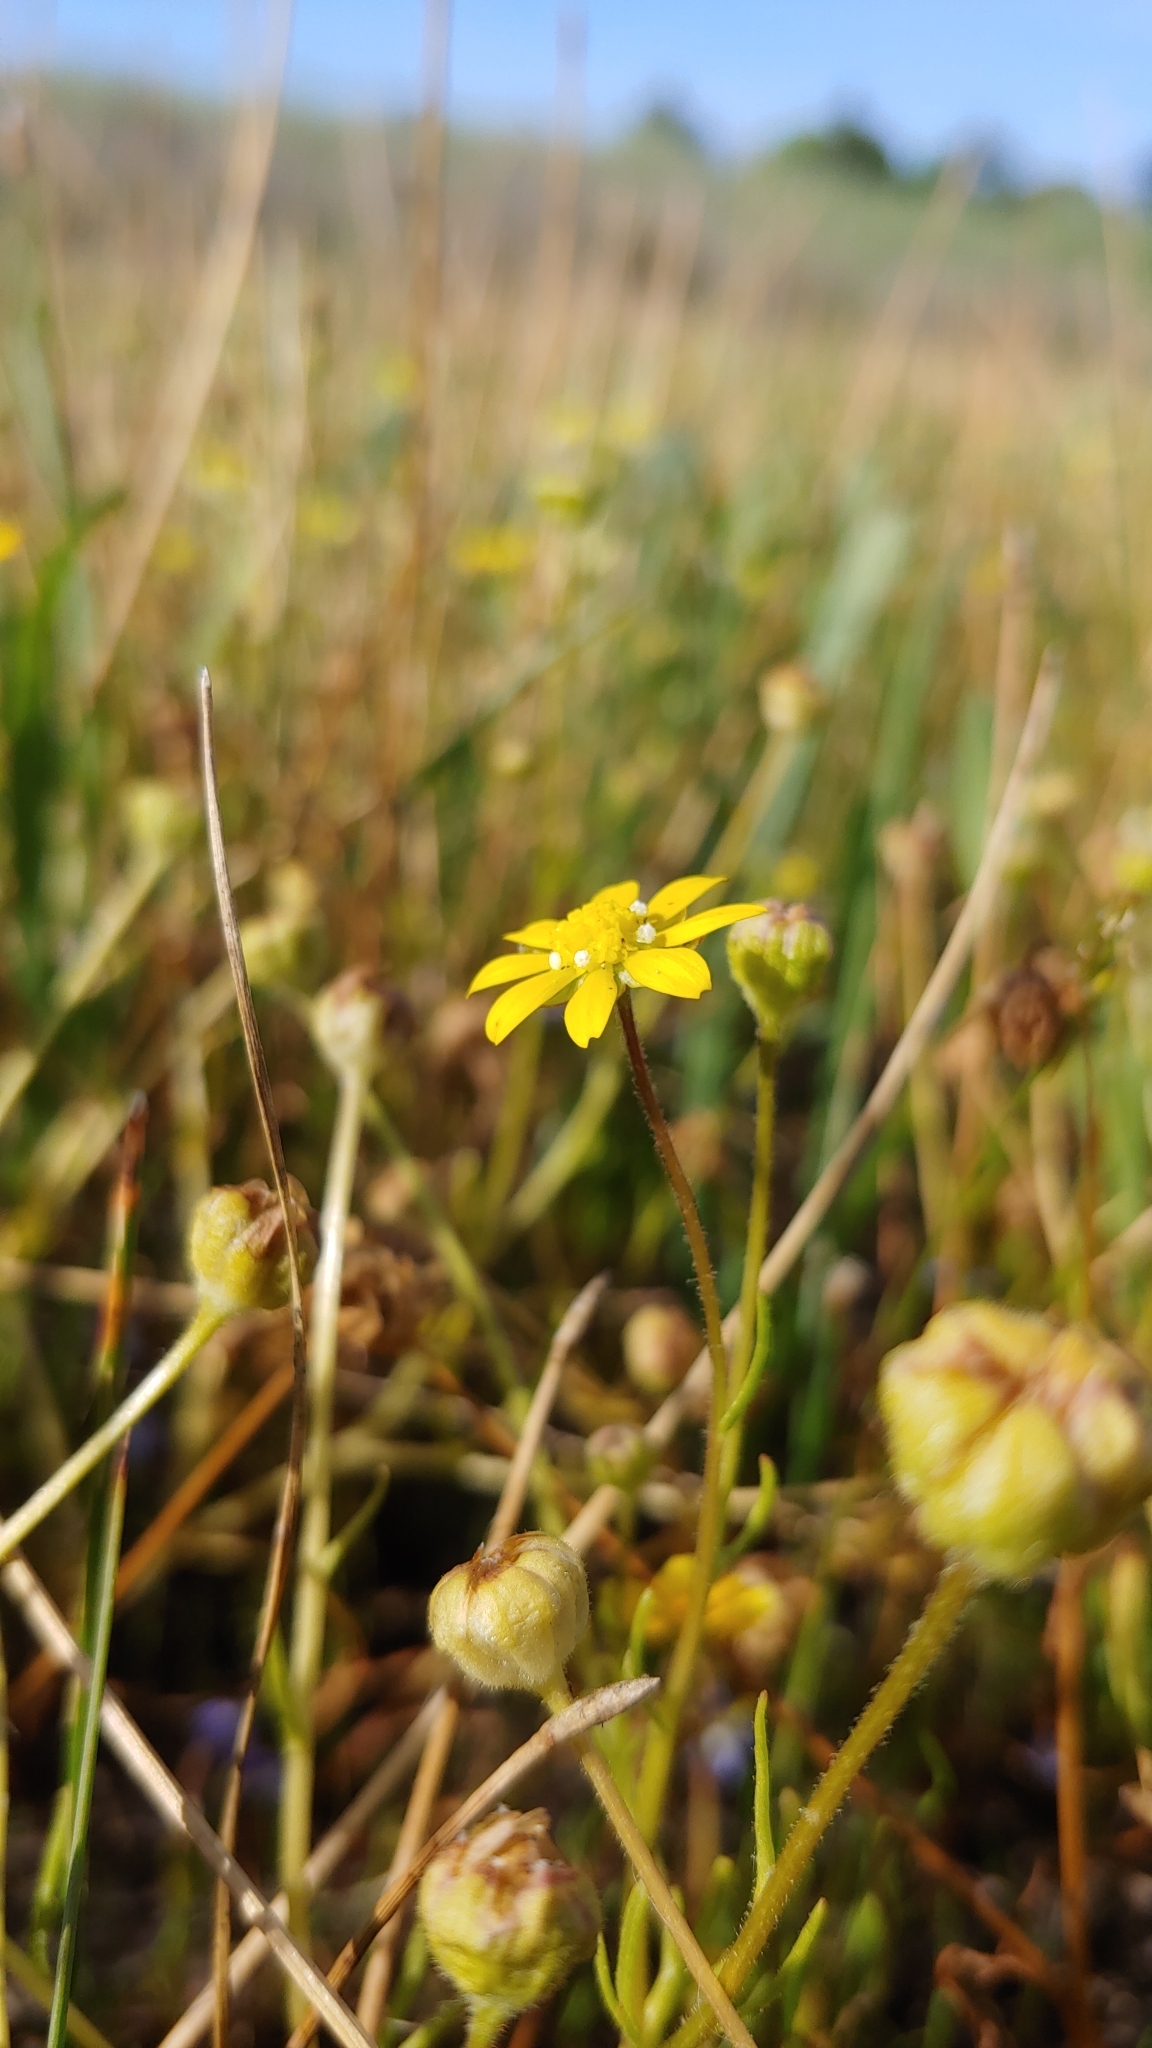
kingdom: Plantae
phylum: Tracheophyta
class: Magnoliopsida
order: Asterales
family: Asteraceae
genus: Blennosperma
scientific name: Blennosperma bakeri
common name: Sonoma sunshine
